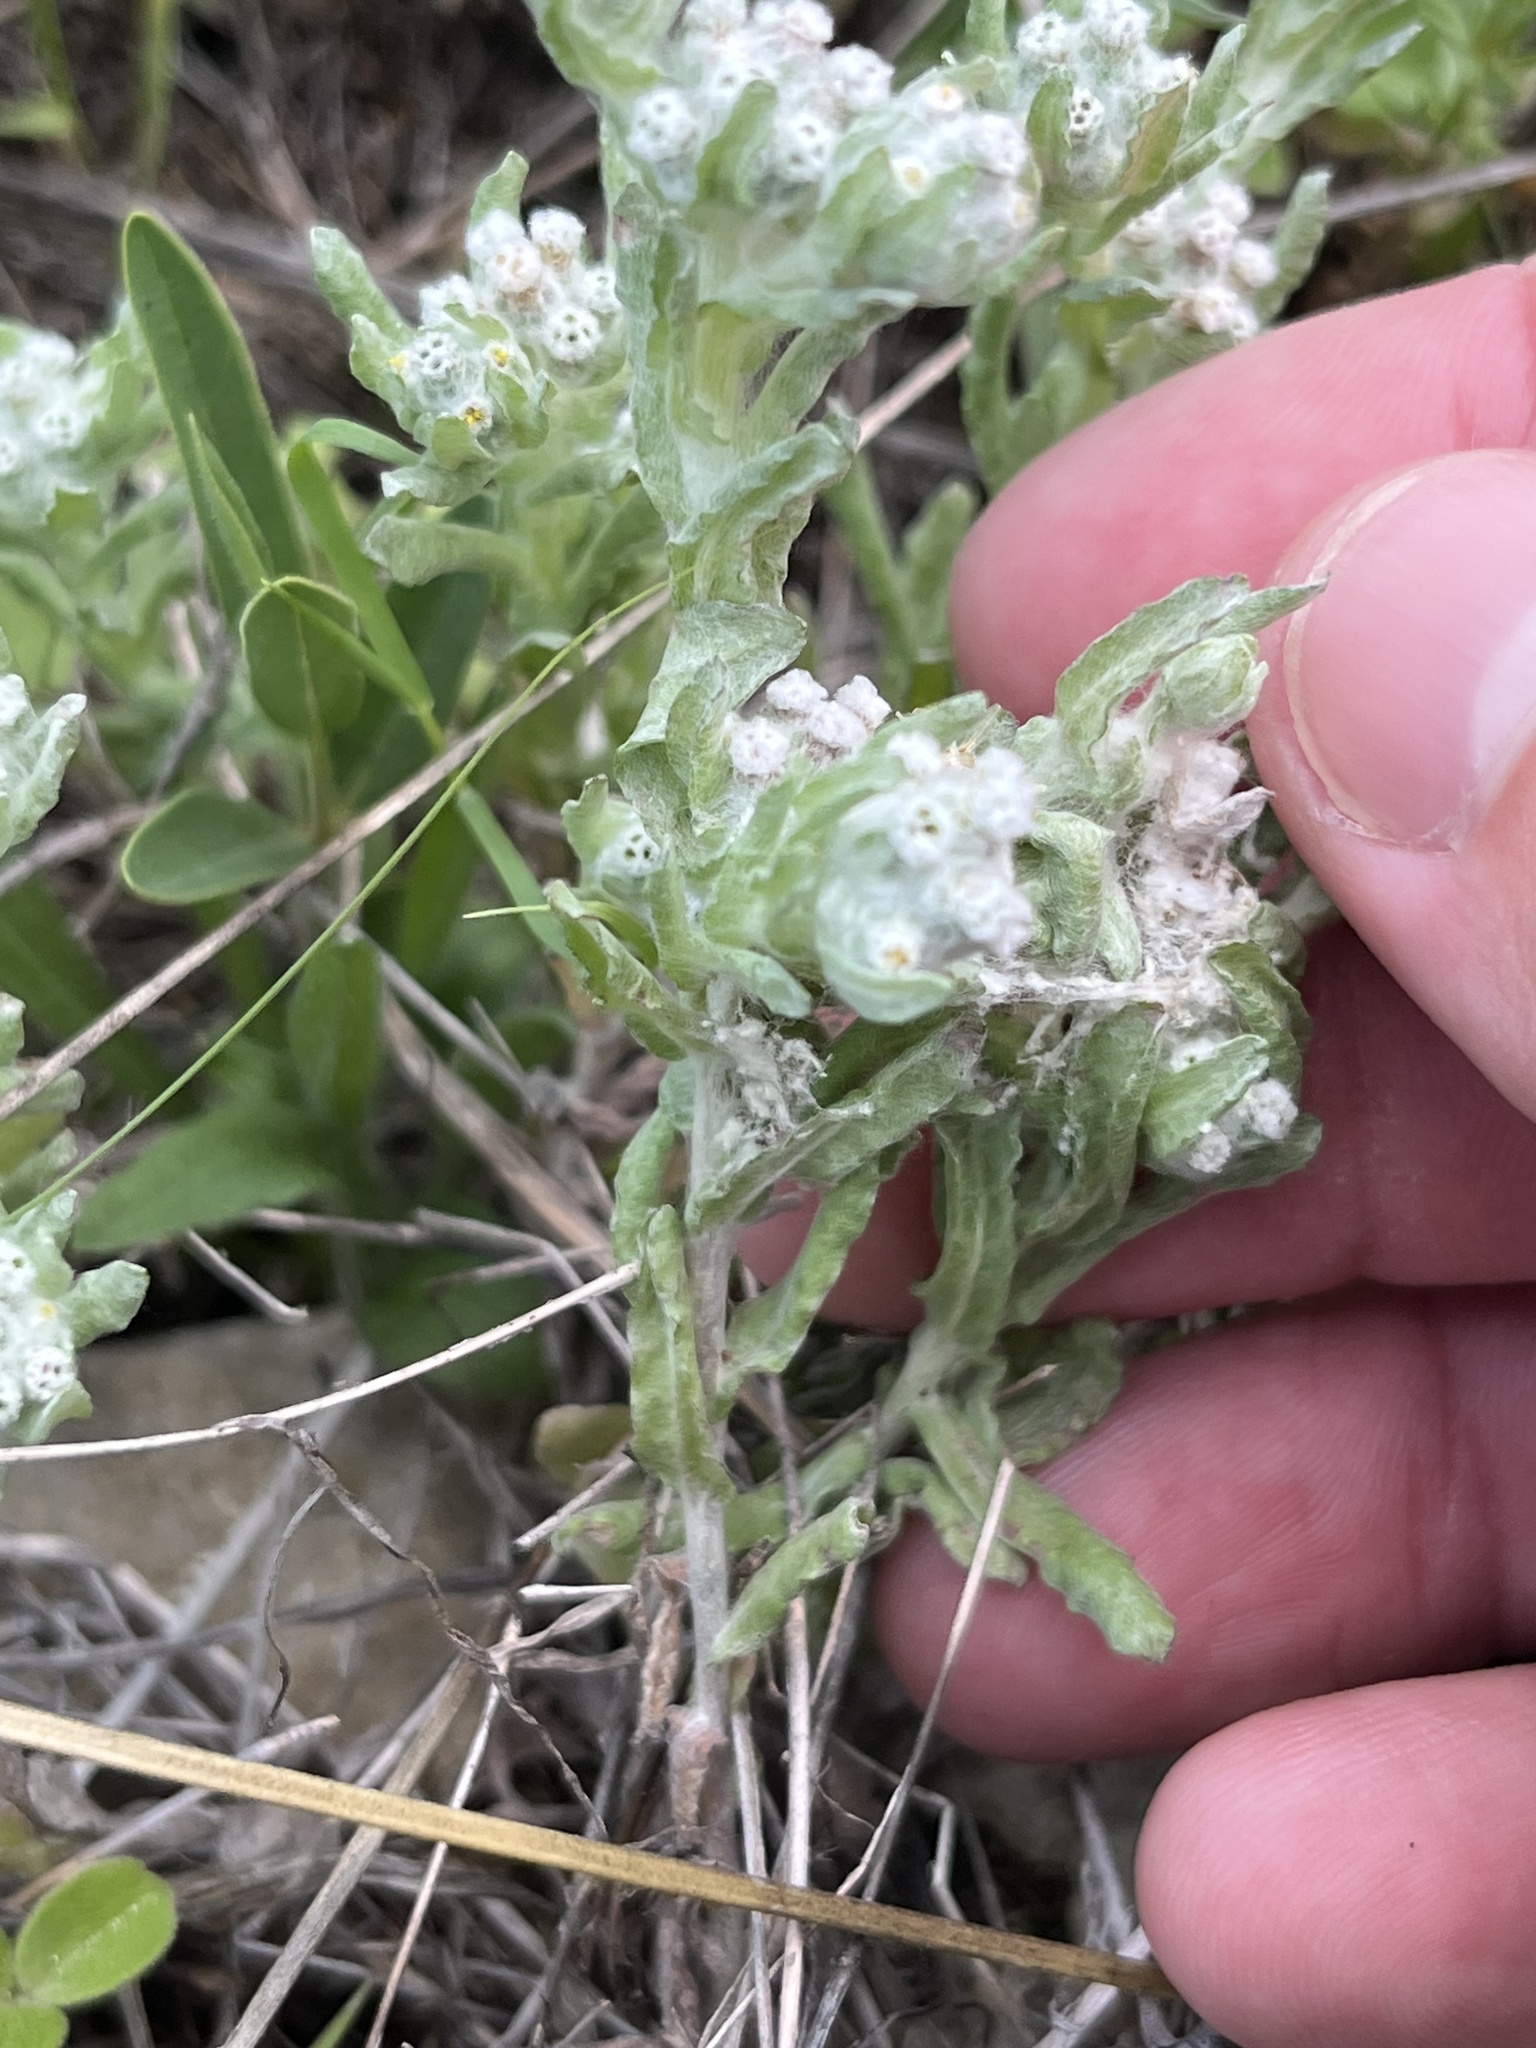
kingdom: Plantae
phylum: Tracheophyta
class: Magnoliopsida
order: Asterales
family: Asteraceae
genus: Diaperia
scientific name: Diaperia verna
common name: Many-stem rabbit-tobacco
